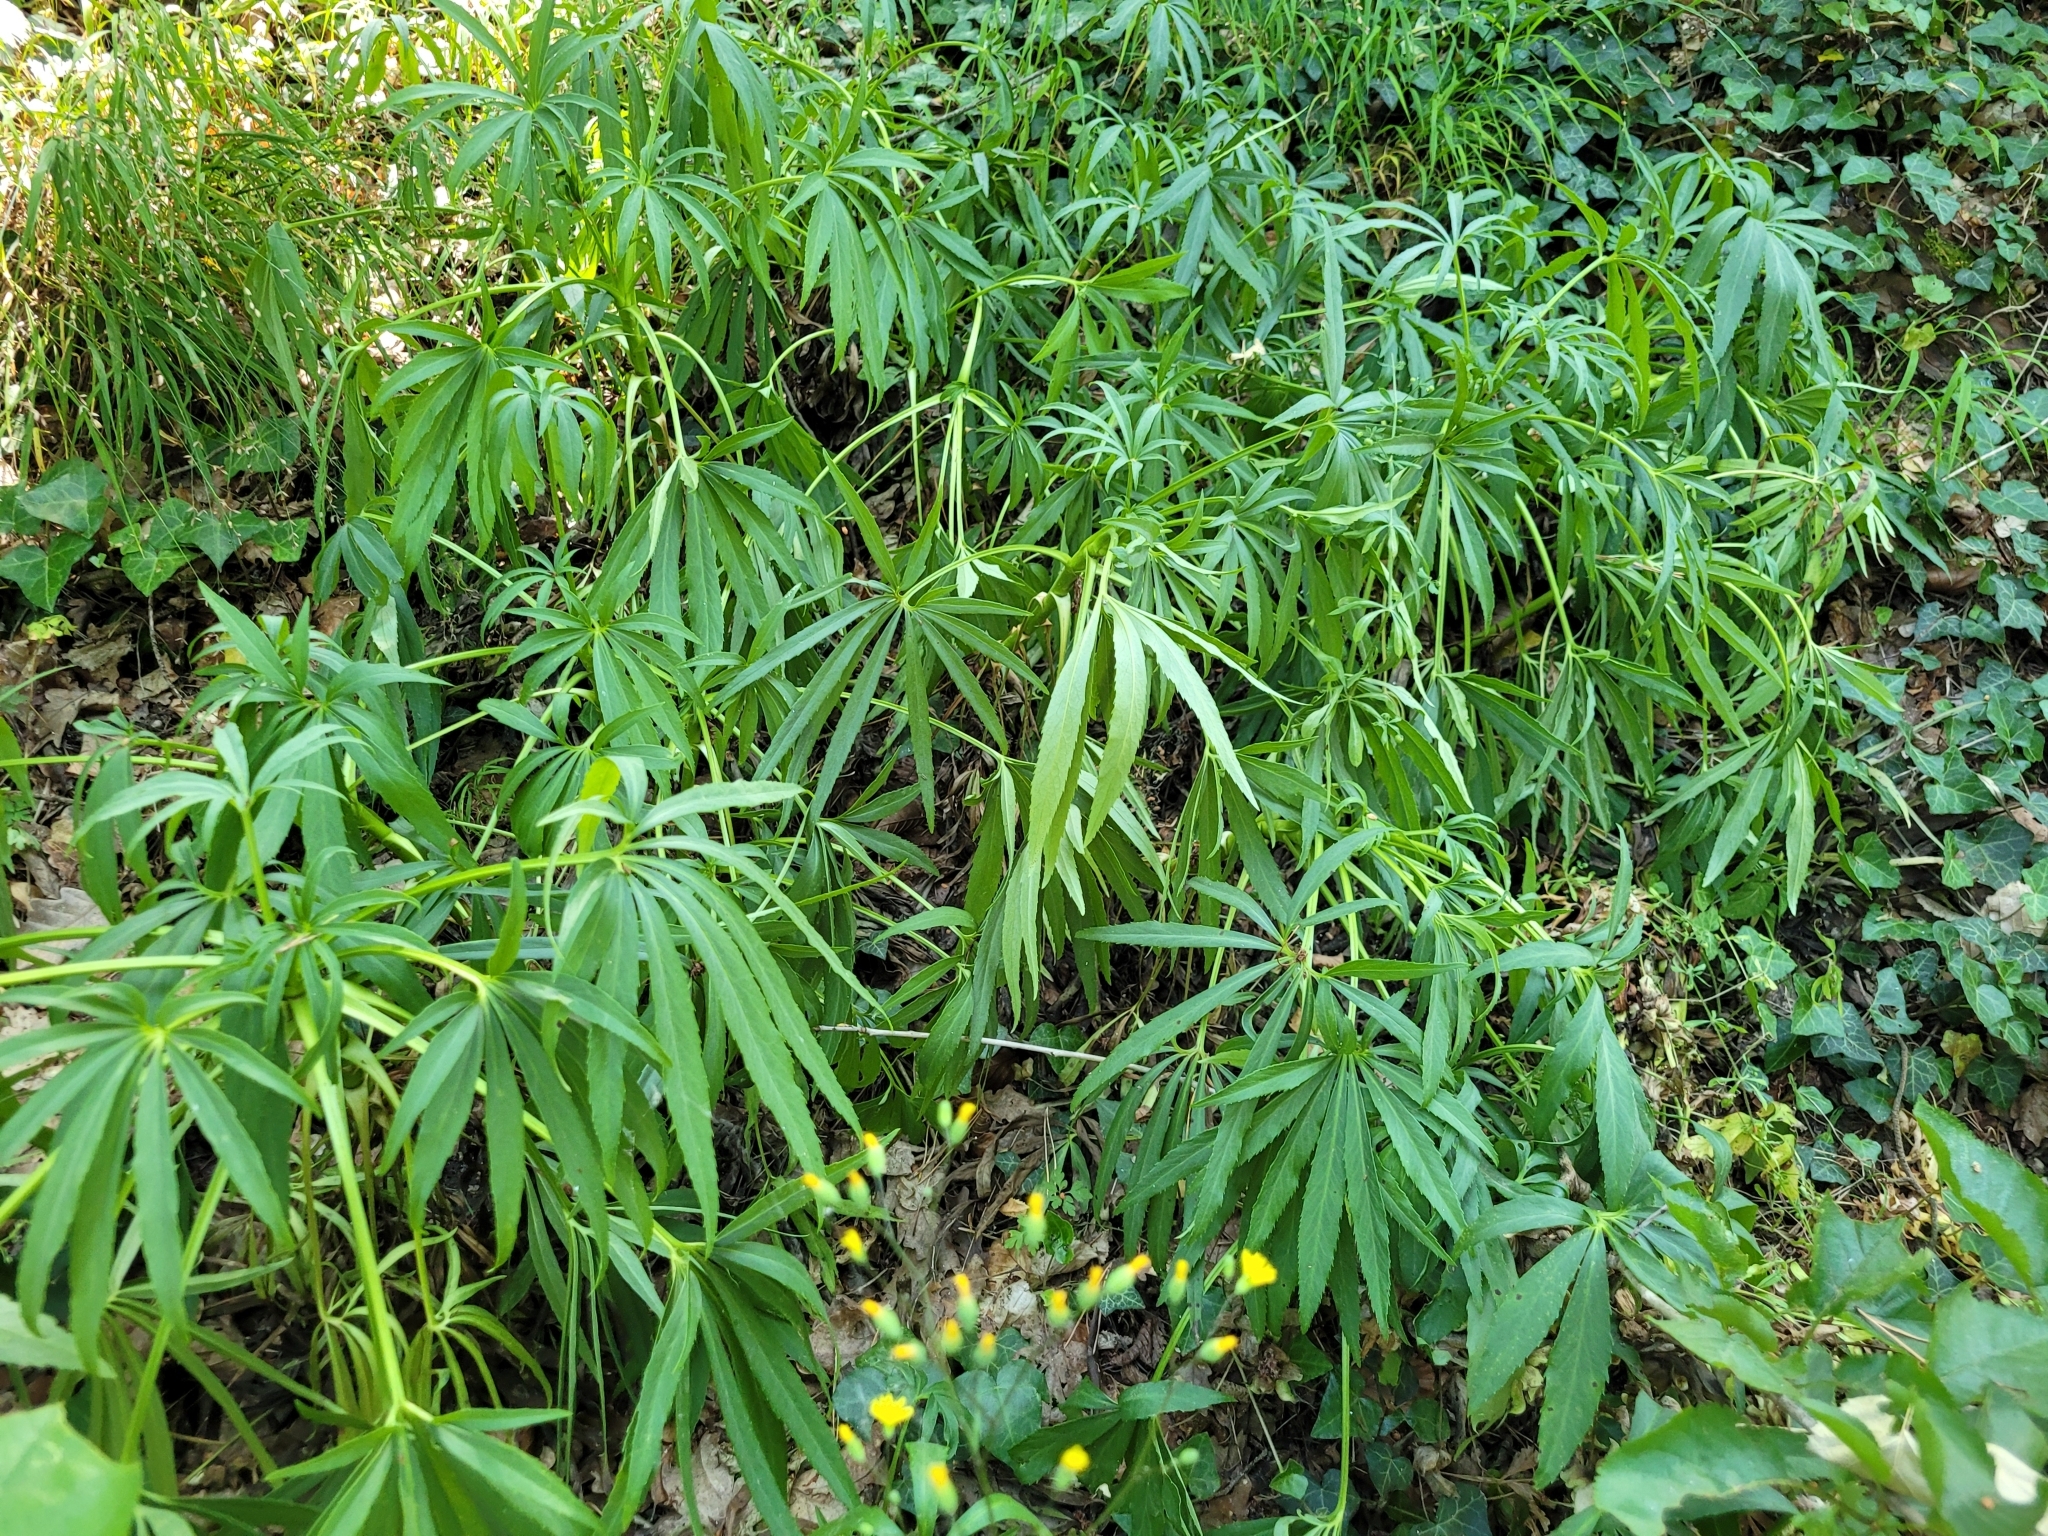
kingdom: Plantae
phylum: Tracheophyta
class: Magnoliopsida
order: Ranunculales
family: Ranunculaceae
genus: Helleborus
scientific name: Helleborus foetidus
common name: Stinking hellebore
